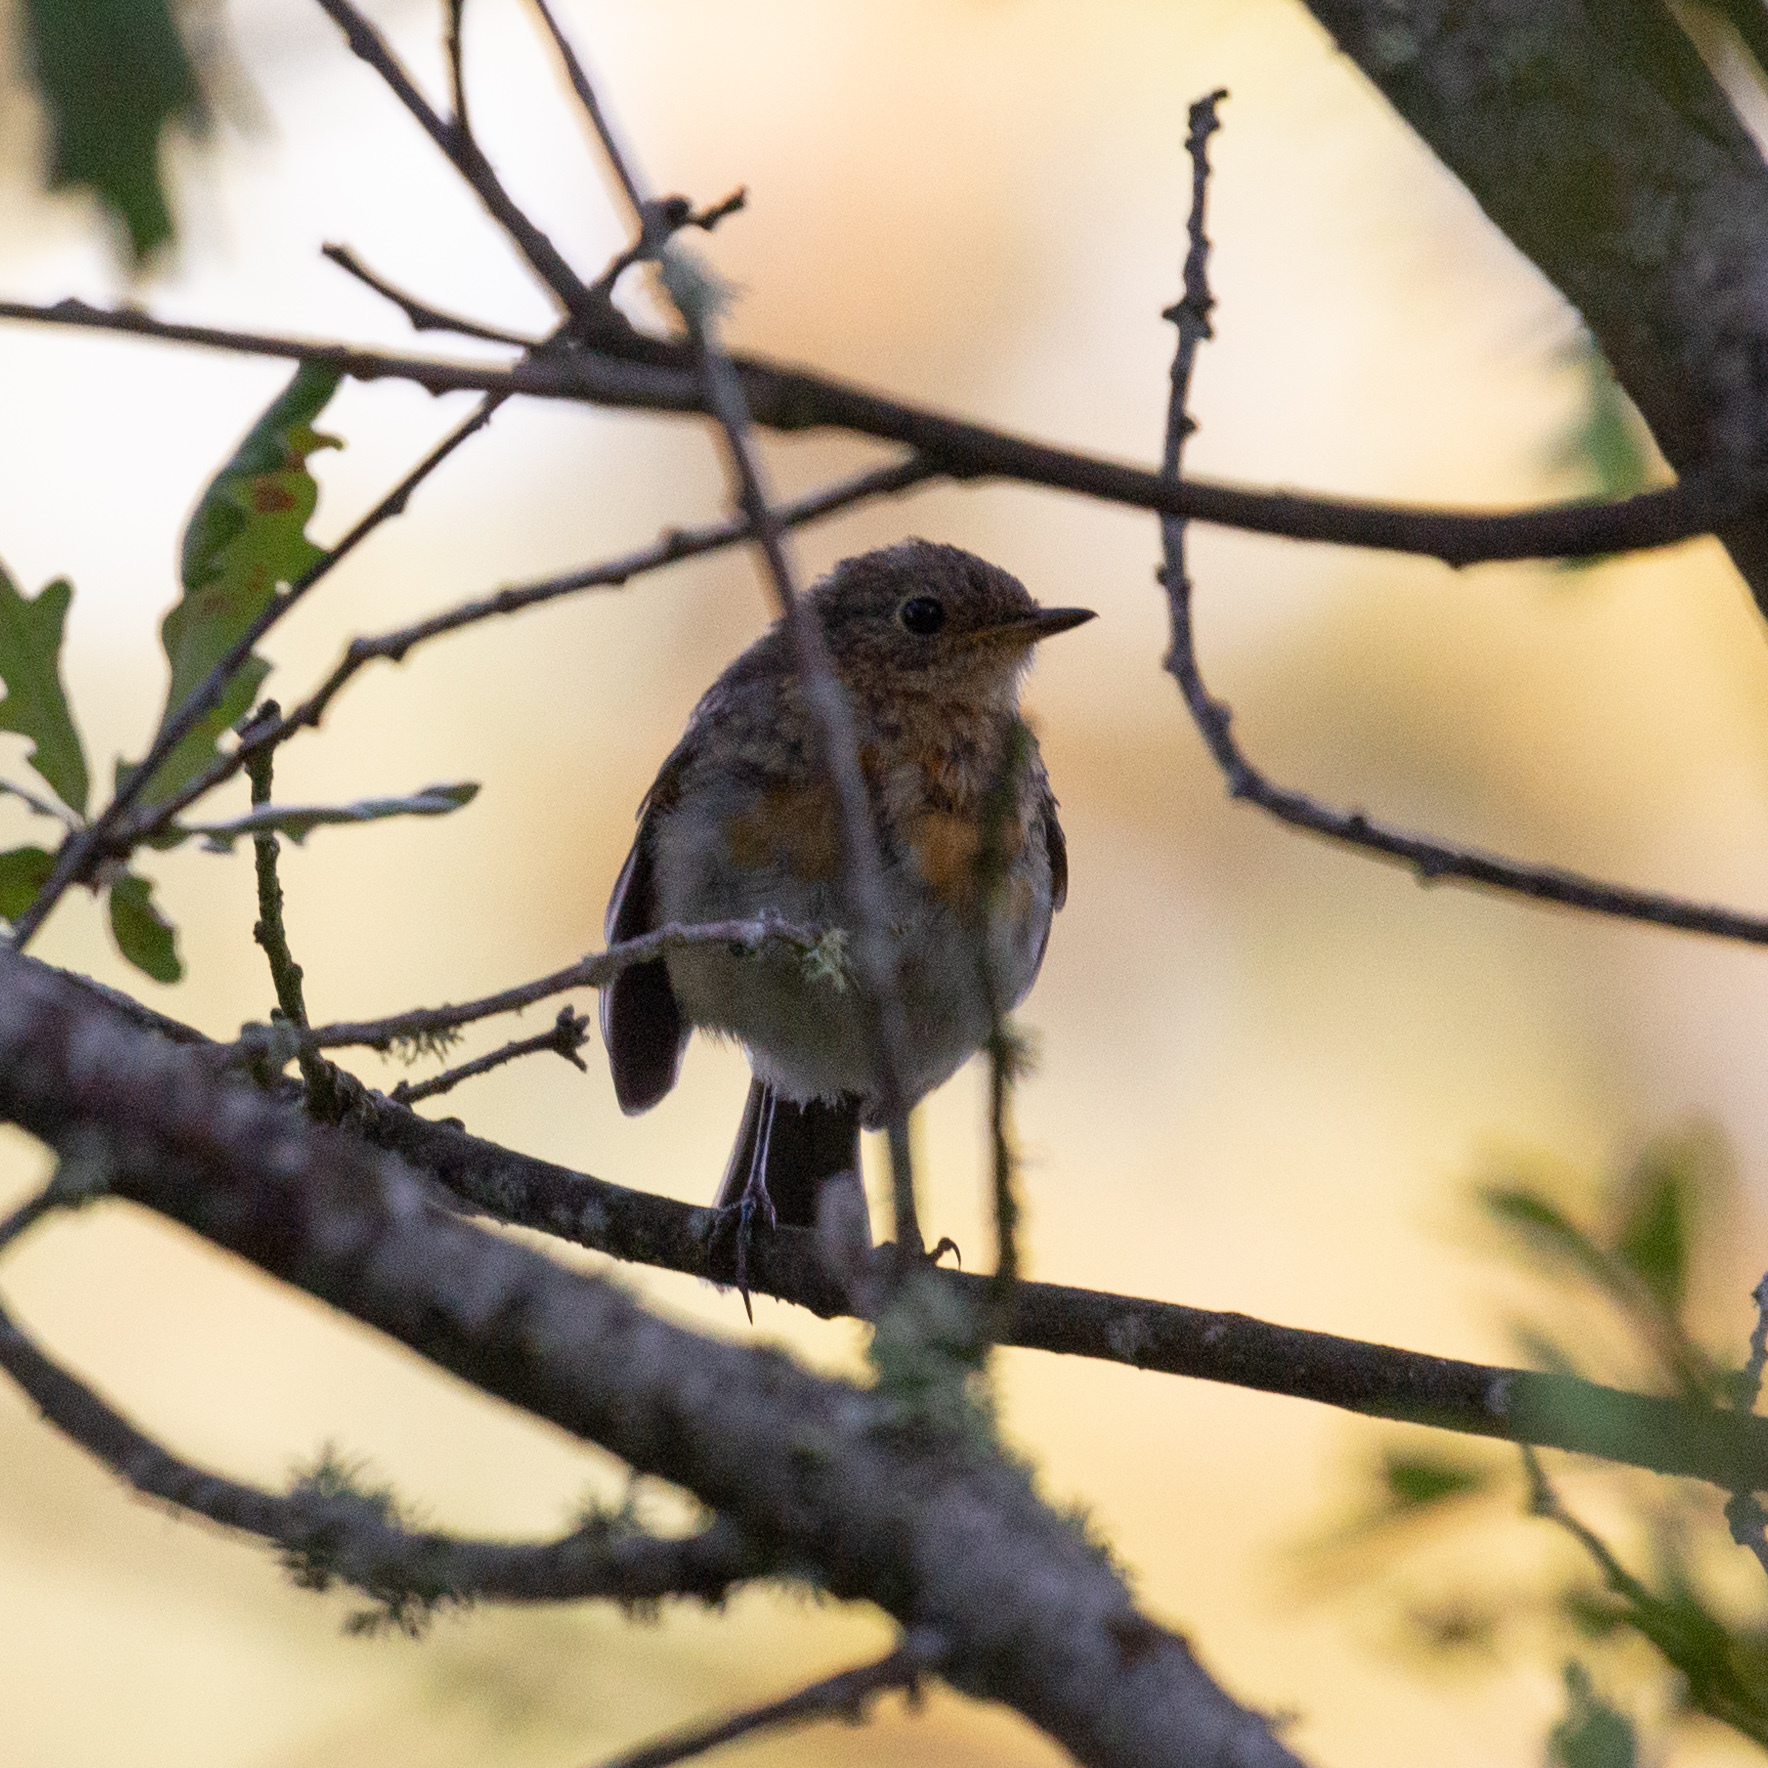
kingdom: Animalia
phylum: Chordata
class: Aves
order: Passeriformes
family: Muscicapidae
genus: Erithacus
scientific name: Erithacus rubecula
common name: European robin
